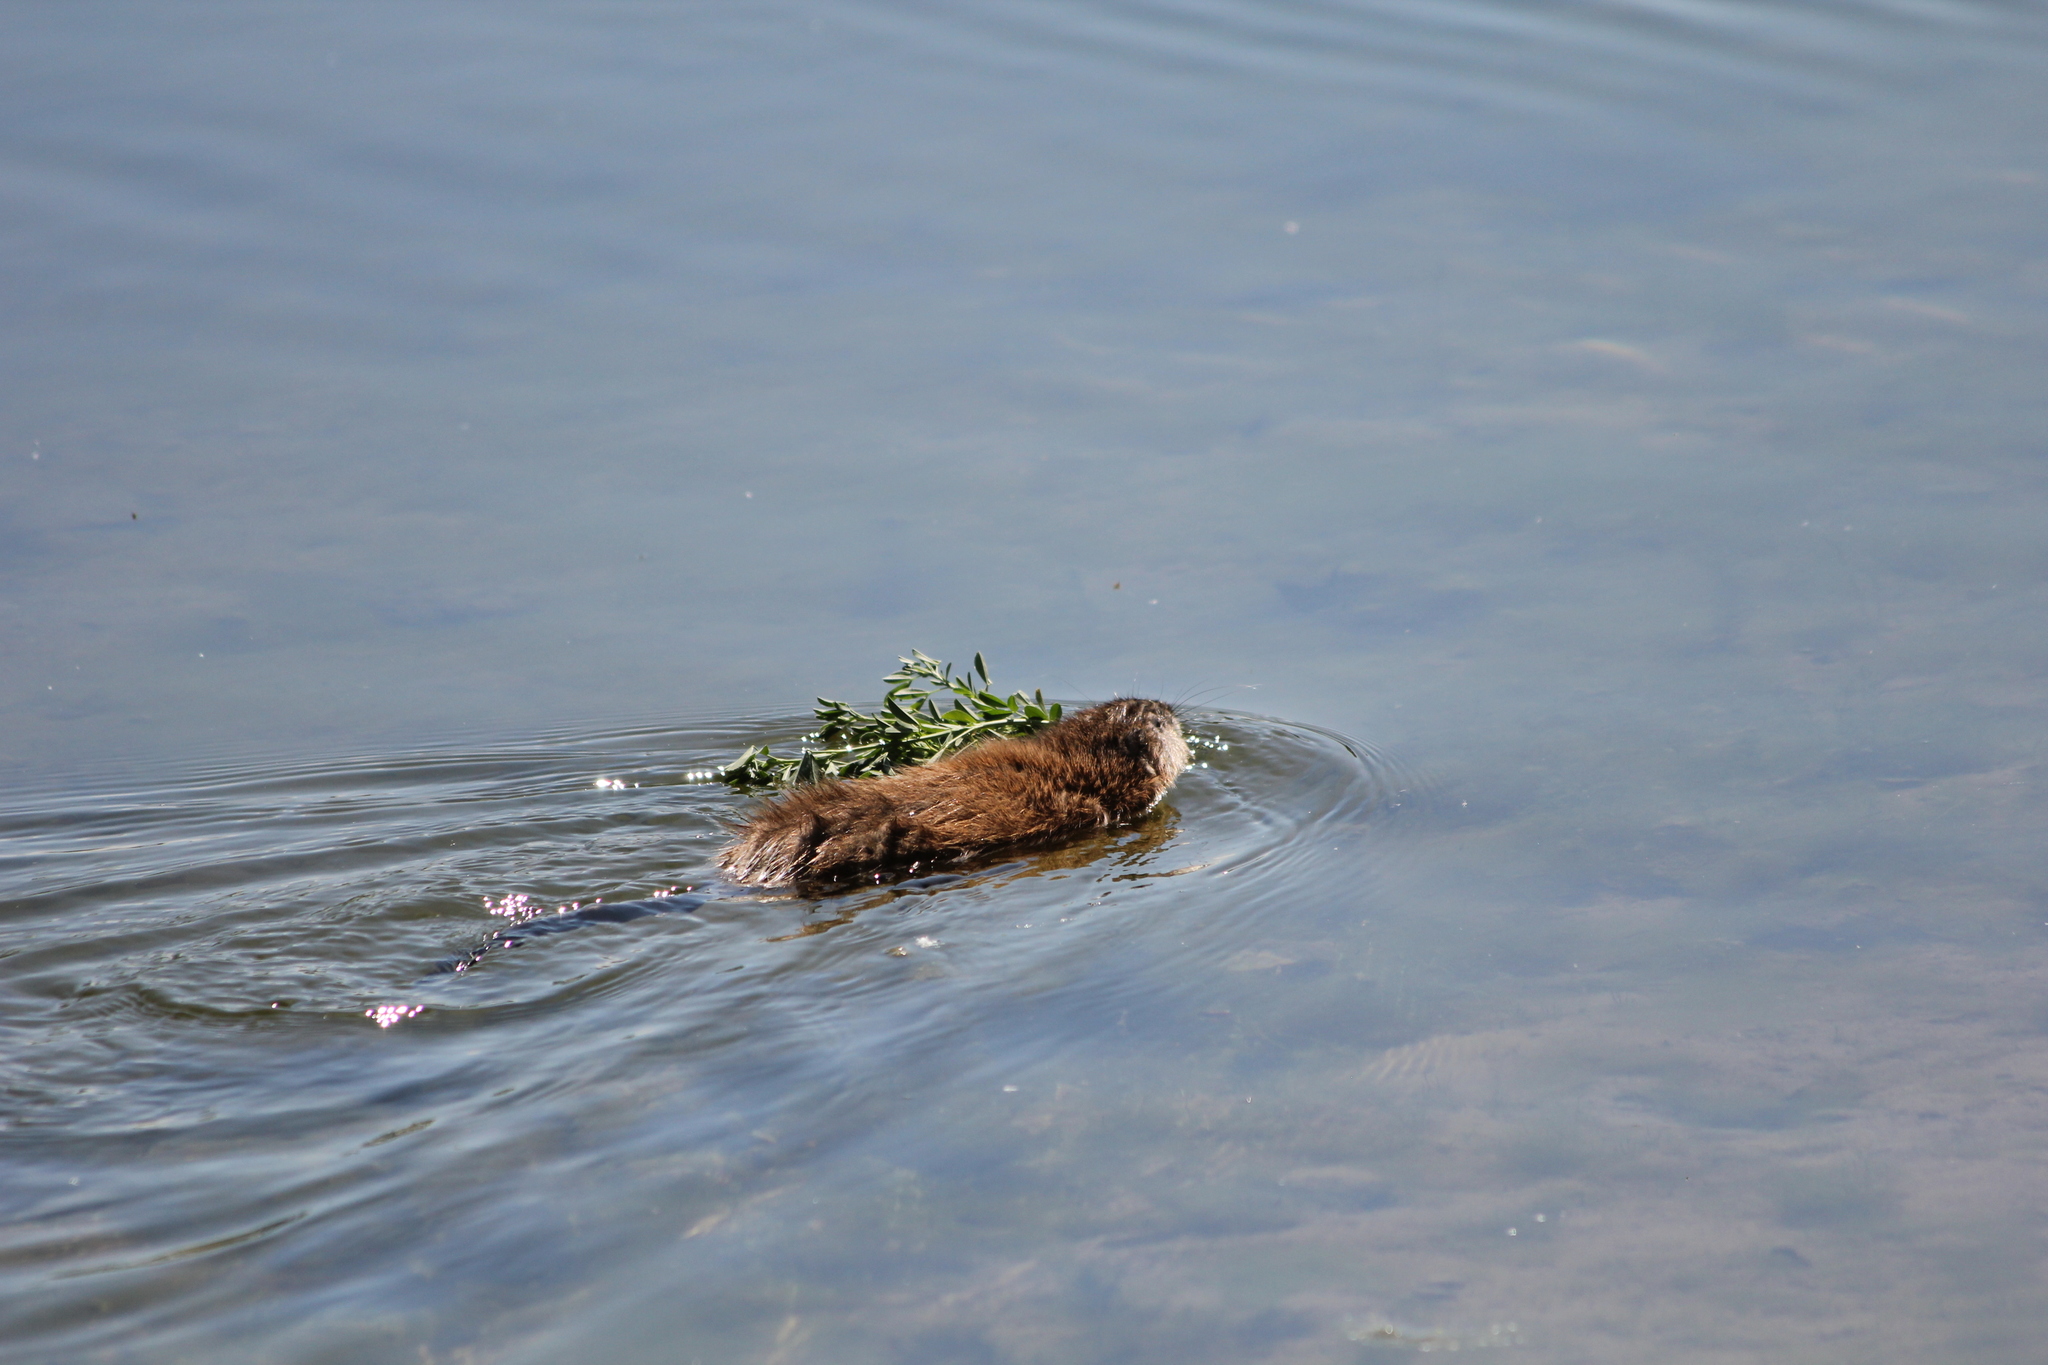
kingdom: Animalia
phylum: Chordata
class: Mammalia
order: Rodentia
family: Cricetidae
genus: Ondatra
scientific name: Ondatra zibethicus
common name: Muskrat
